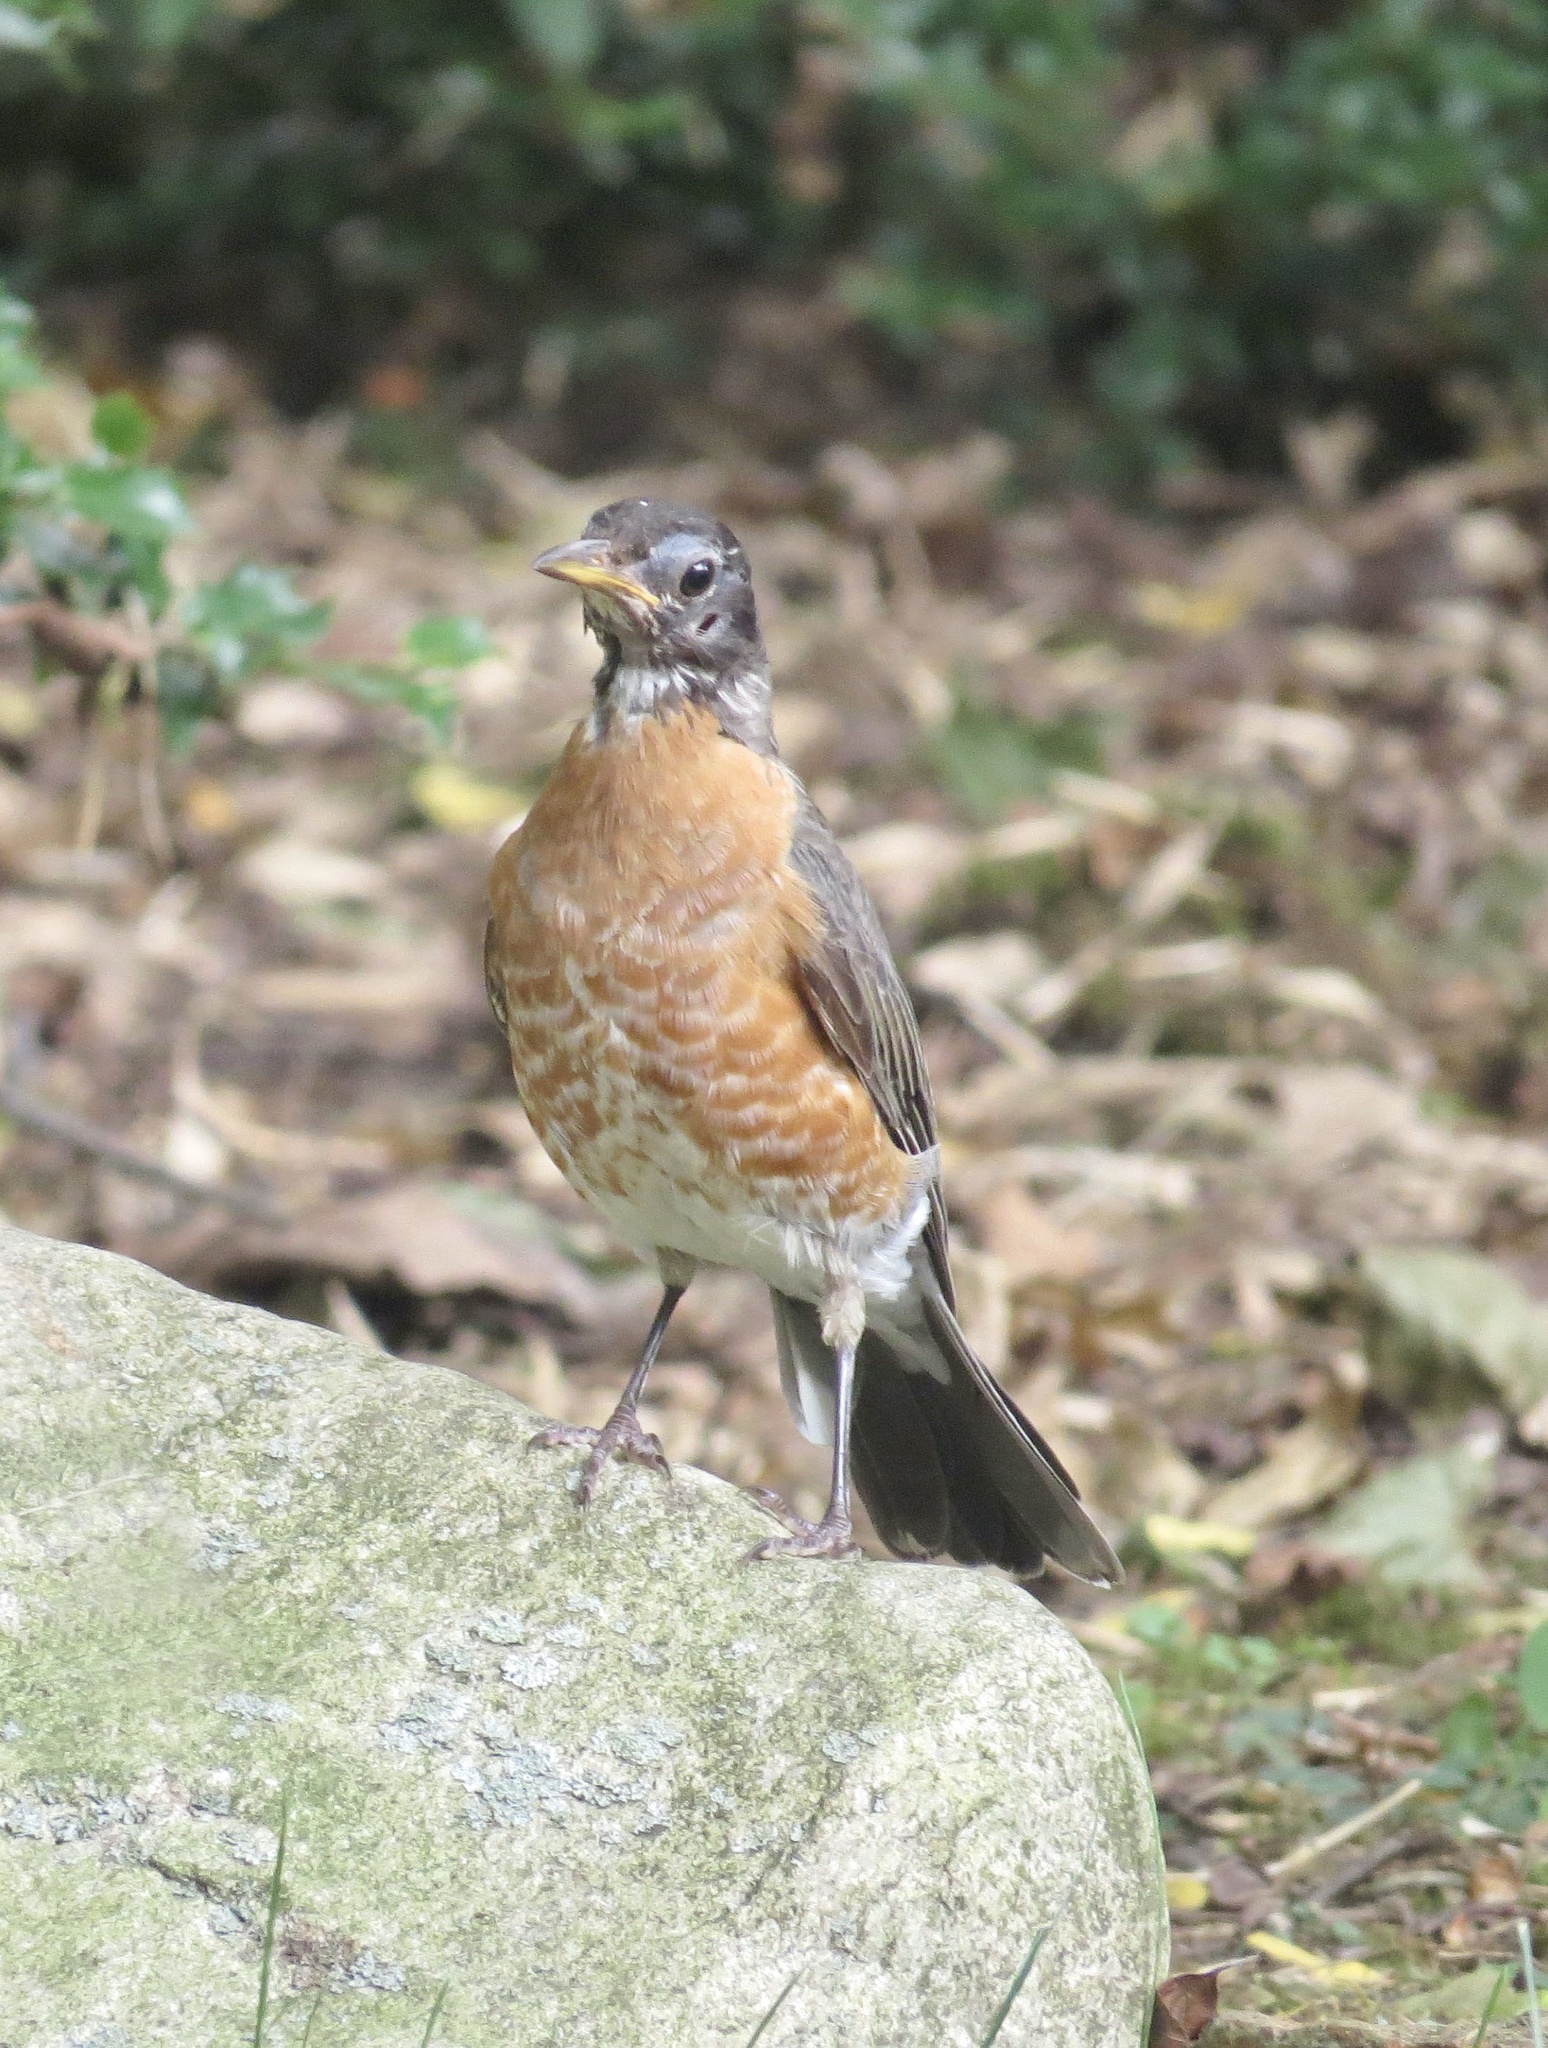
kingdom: Animalia
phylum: Chordata
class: Aves
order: Passeriformes
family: Turdidae
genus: Turdus
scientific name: Turdus migratorius
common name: American robin
